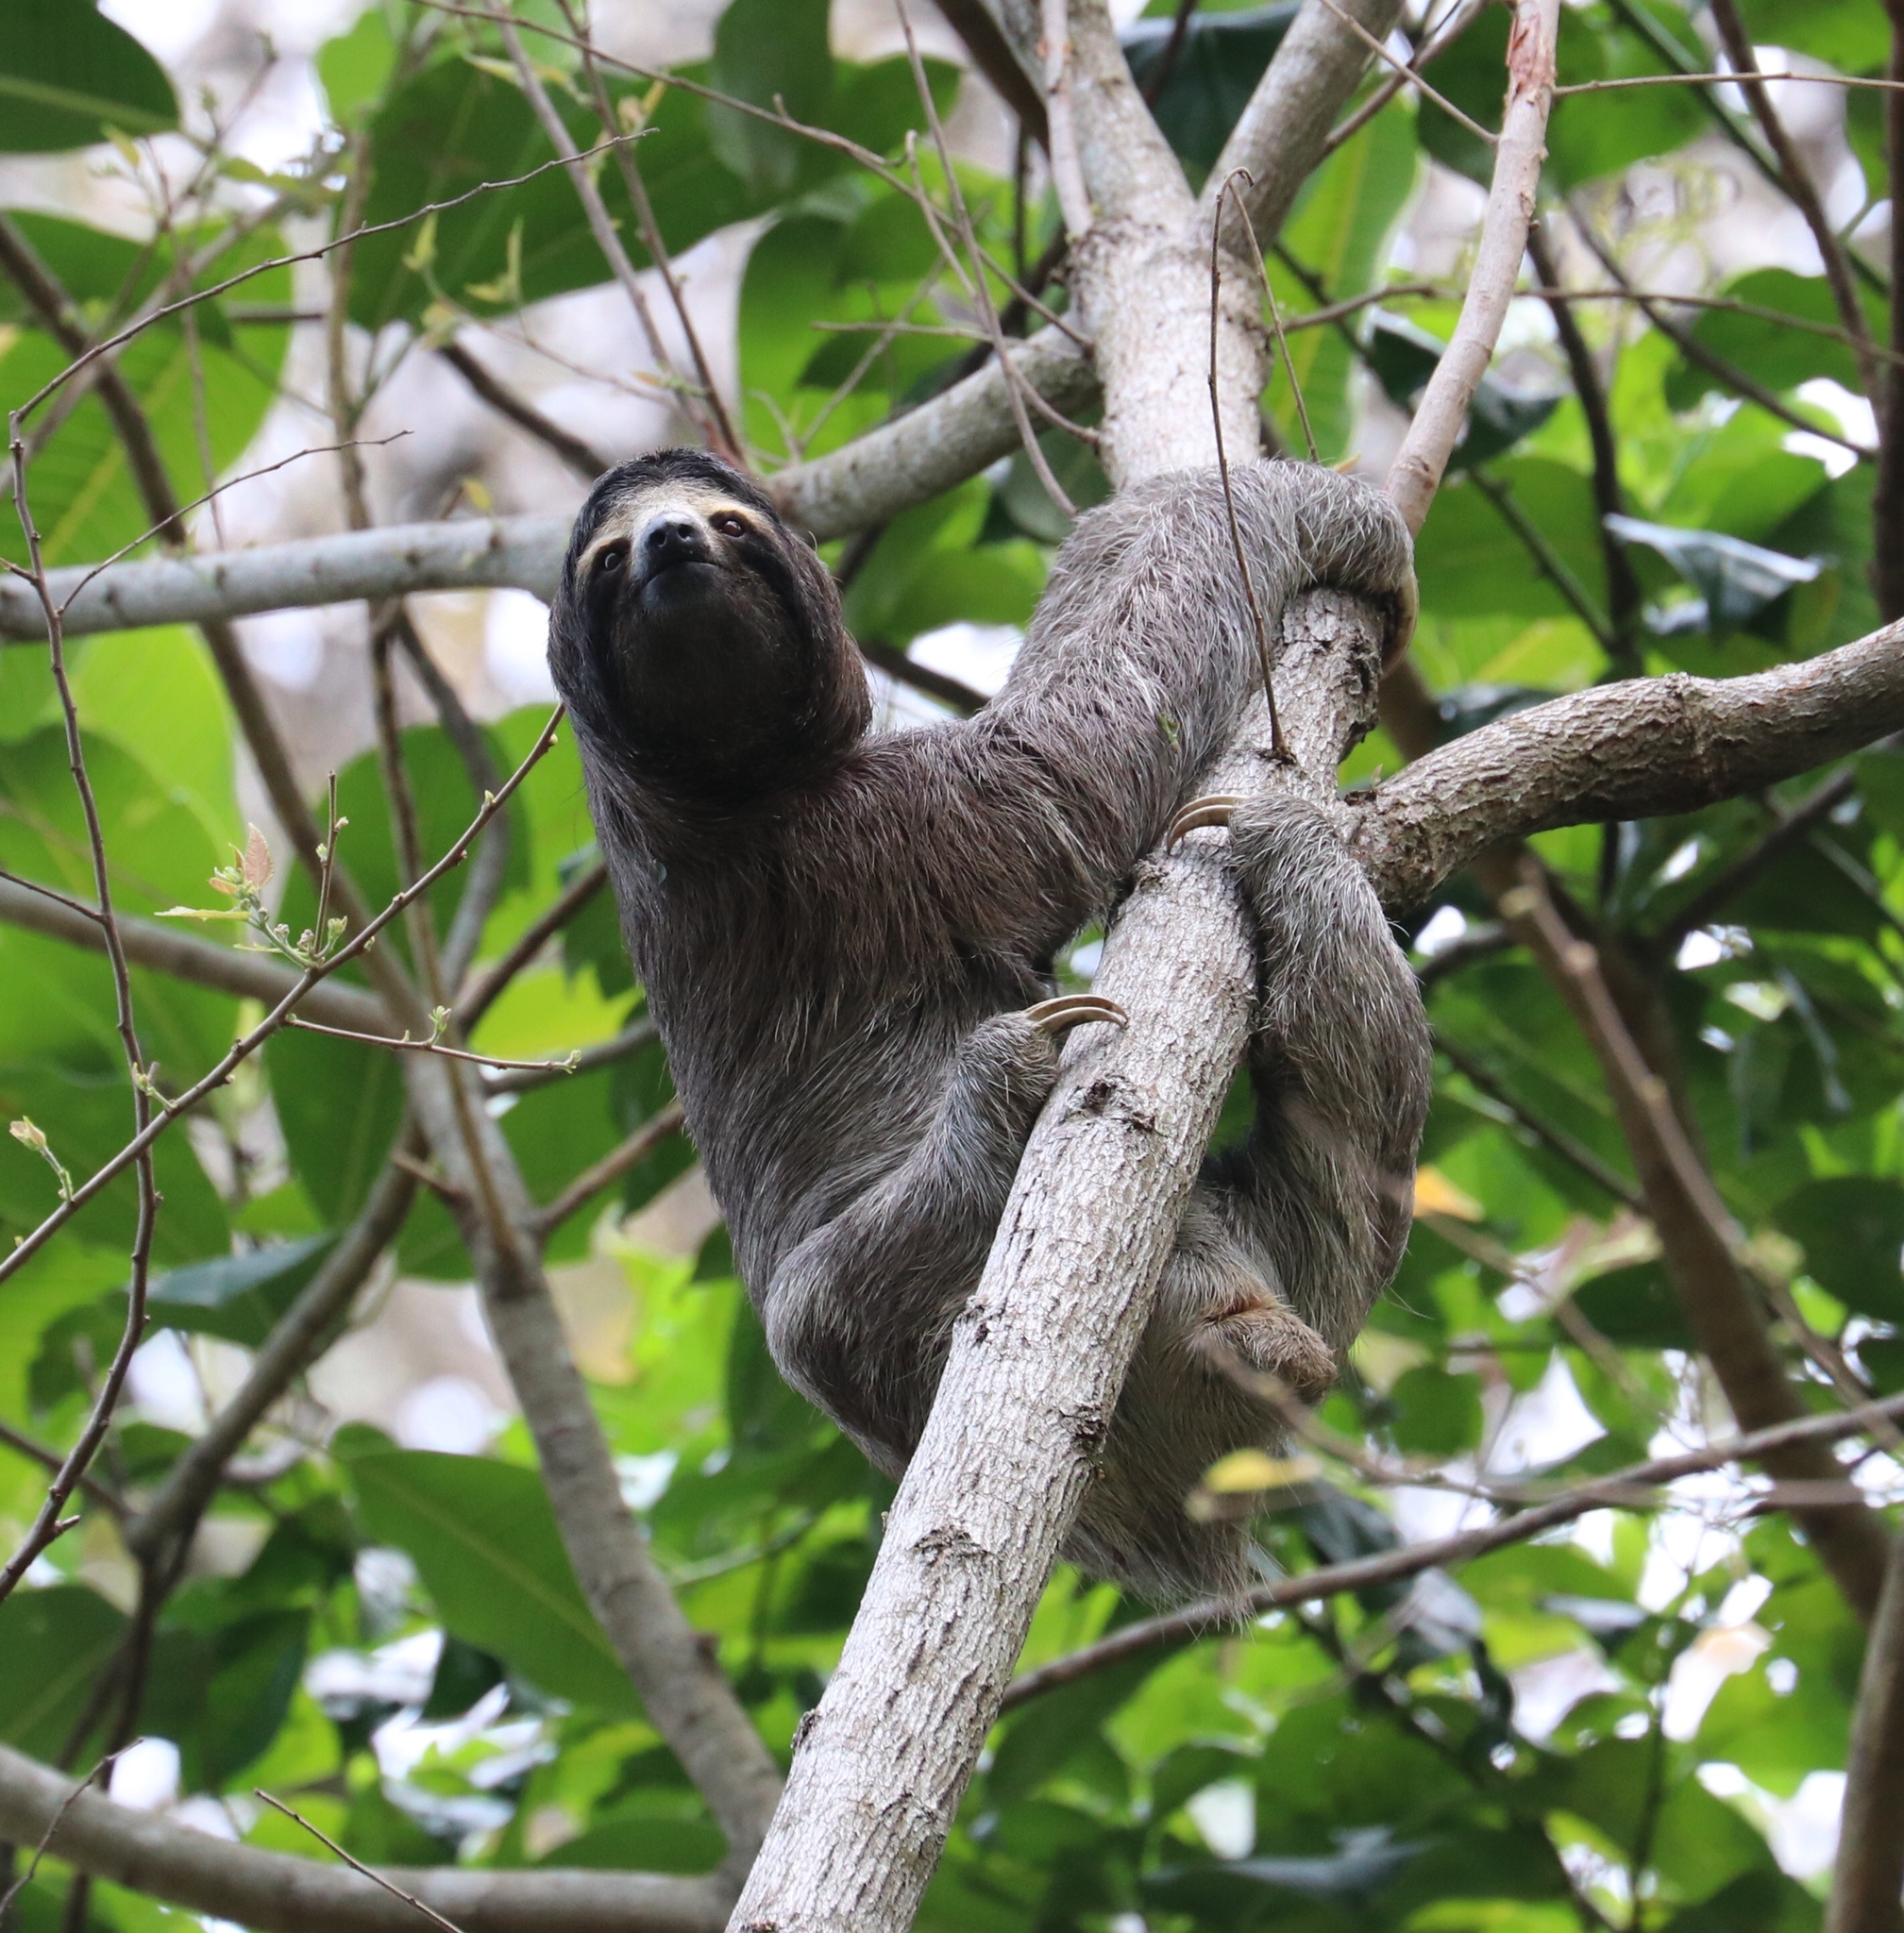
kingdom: Animalia
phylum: Chordata
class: Mammalia
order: Pilosa
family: Bradypodidae
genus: Bradypus
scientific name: Bradypus variegatus
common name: Brown-throated three-toed sloth
